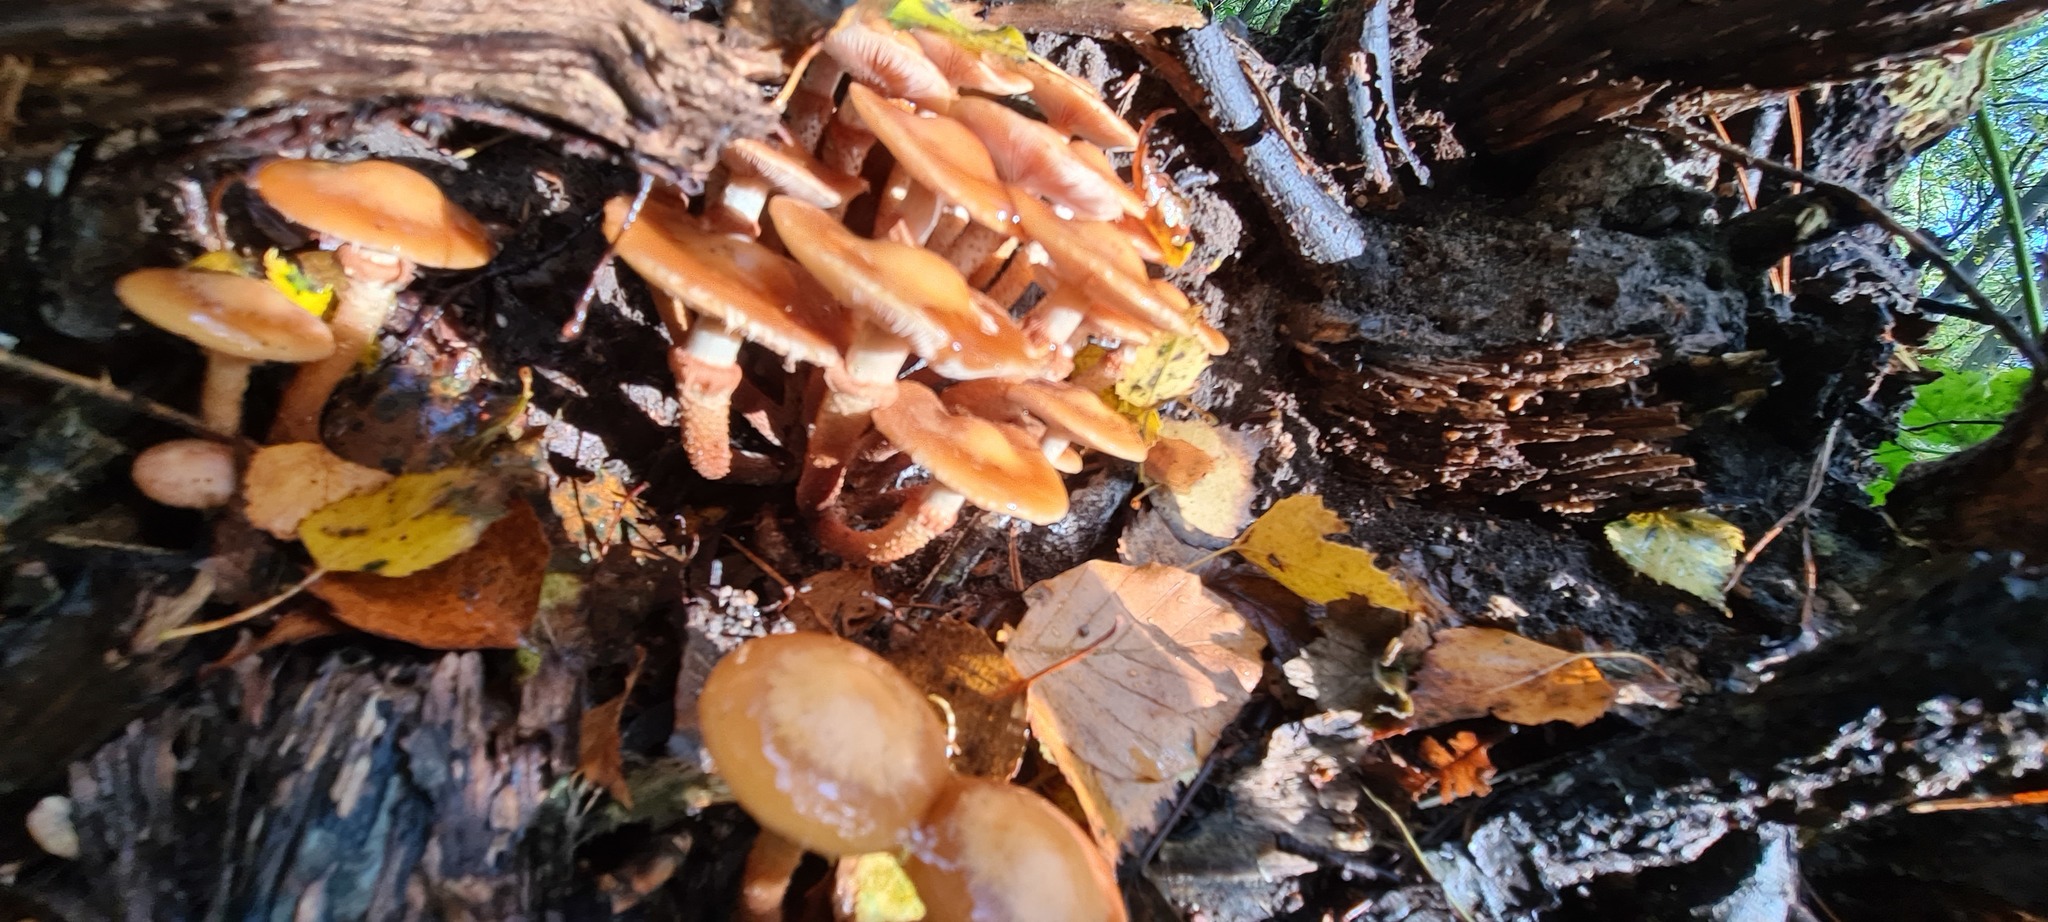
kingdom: Fungi
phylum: Basidiomycota
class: Agaricomycetes
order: Agaricales
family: Strophariaceae
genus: Kuehneromyces
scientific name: Kuehneromyces mutabilis
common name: Sheathed woodtuft
